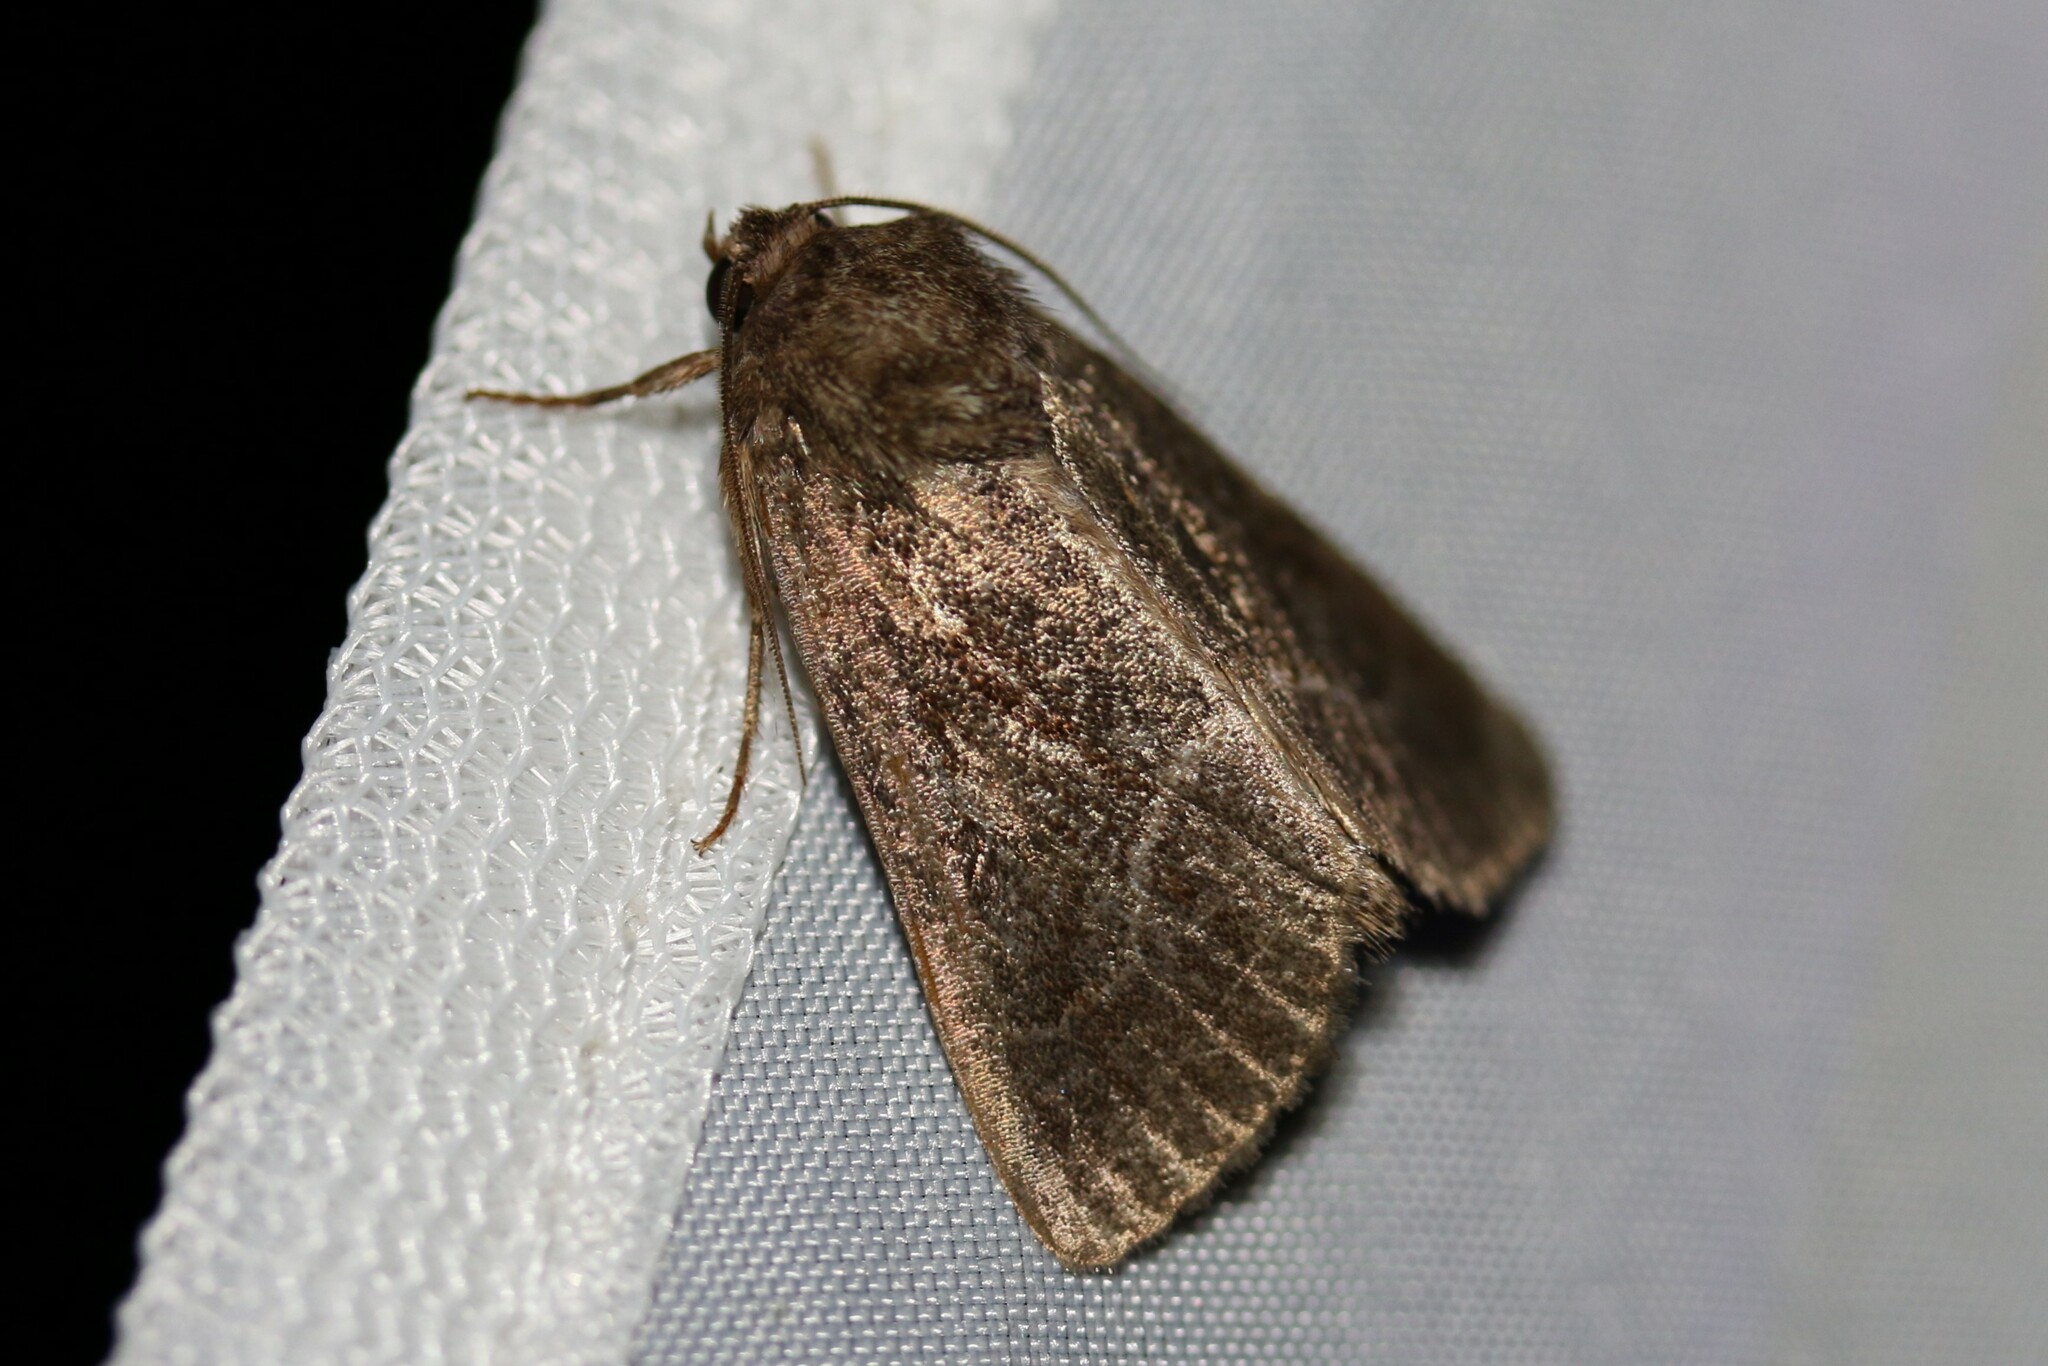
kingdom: Animalia
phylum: Arthropoda
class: Insecta
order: Lepidoptera
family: Noctuidae
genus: Thalpophila
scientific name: Thalpophila matura
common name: Straw underwing
